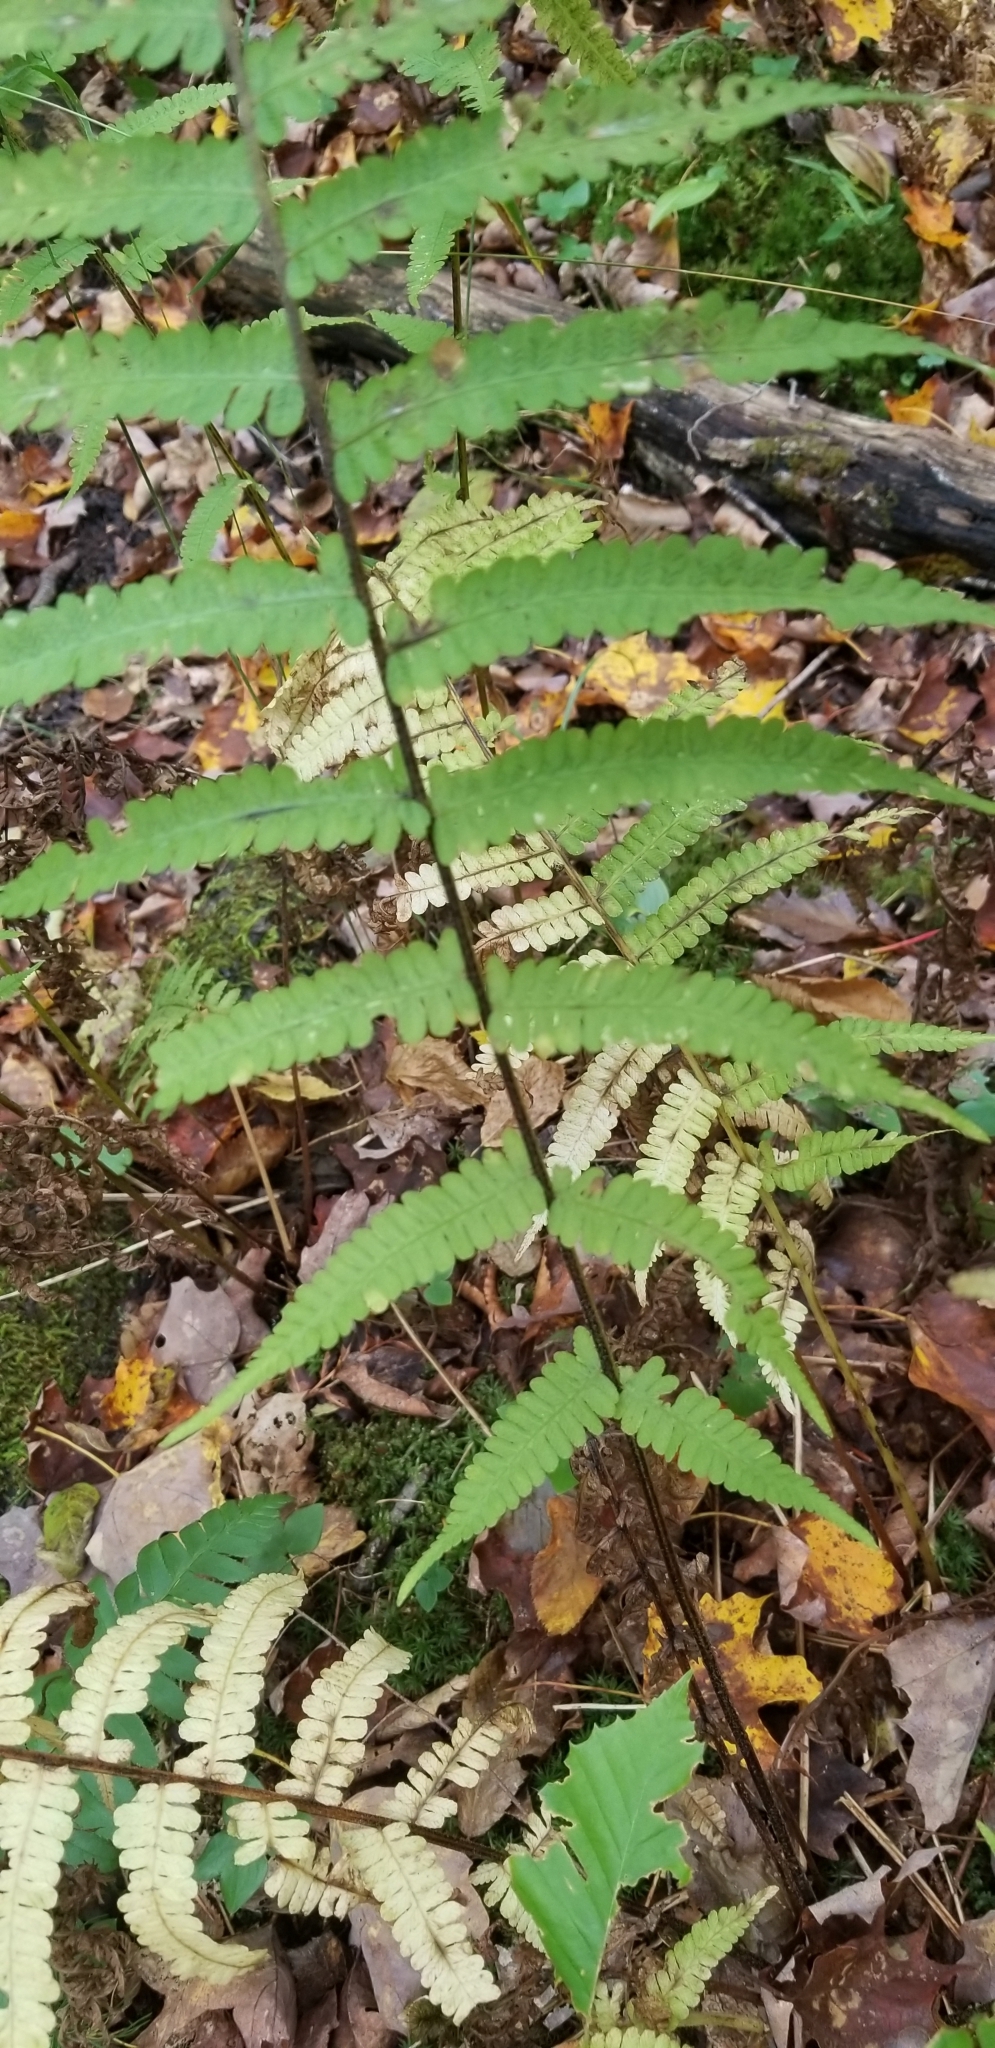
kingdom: Plantae
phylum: Tracheophyta
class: Polypodiopsida
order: Polypodiales
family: Athyriaceae
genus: Deparia
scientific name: Deparia acrostichoides
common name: Silver false spleenwort
